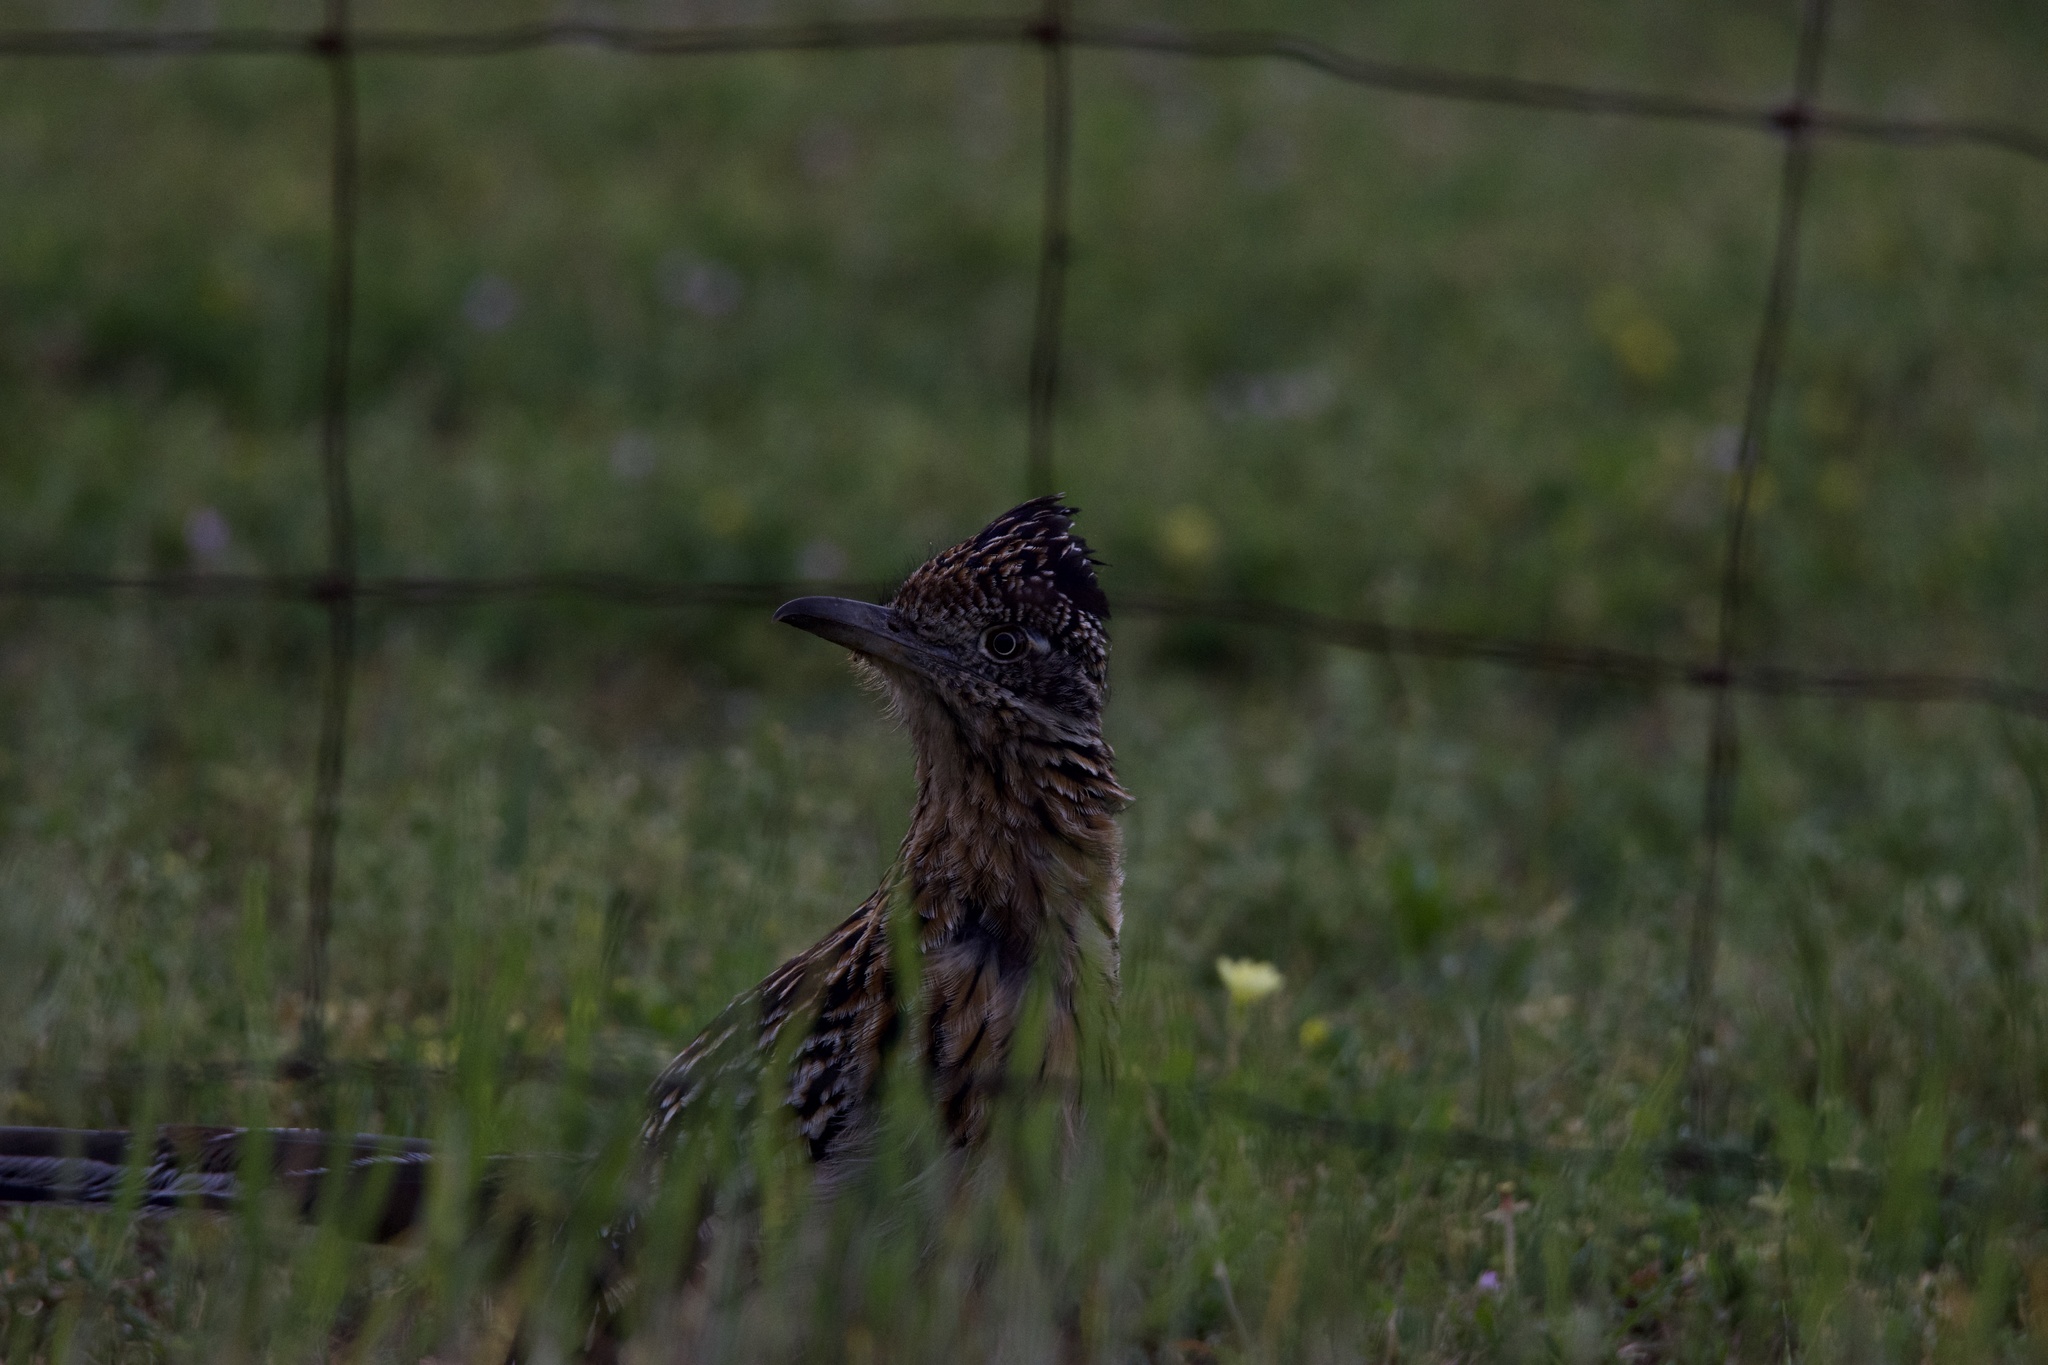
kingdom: Animalia
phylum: Chordata
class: Aves
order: Cuculiformes
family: Cuculidae
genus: Geococcyx
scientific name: Geococcyx californianus
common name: Greater roadrunner
